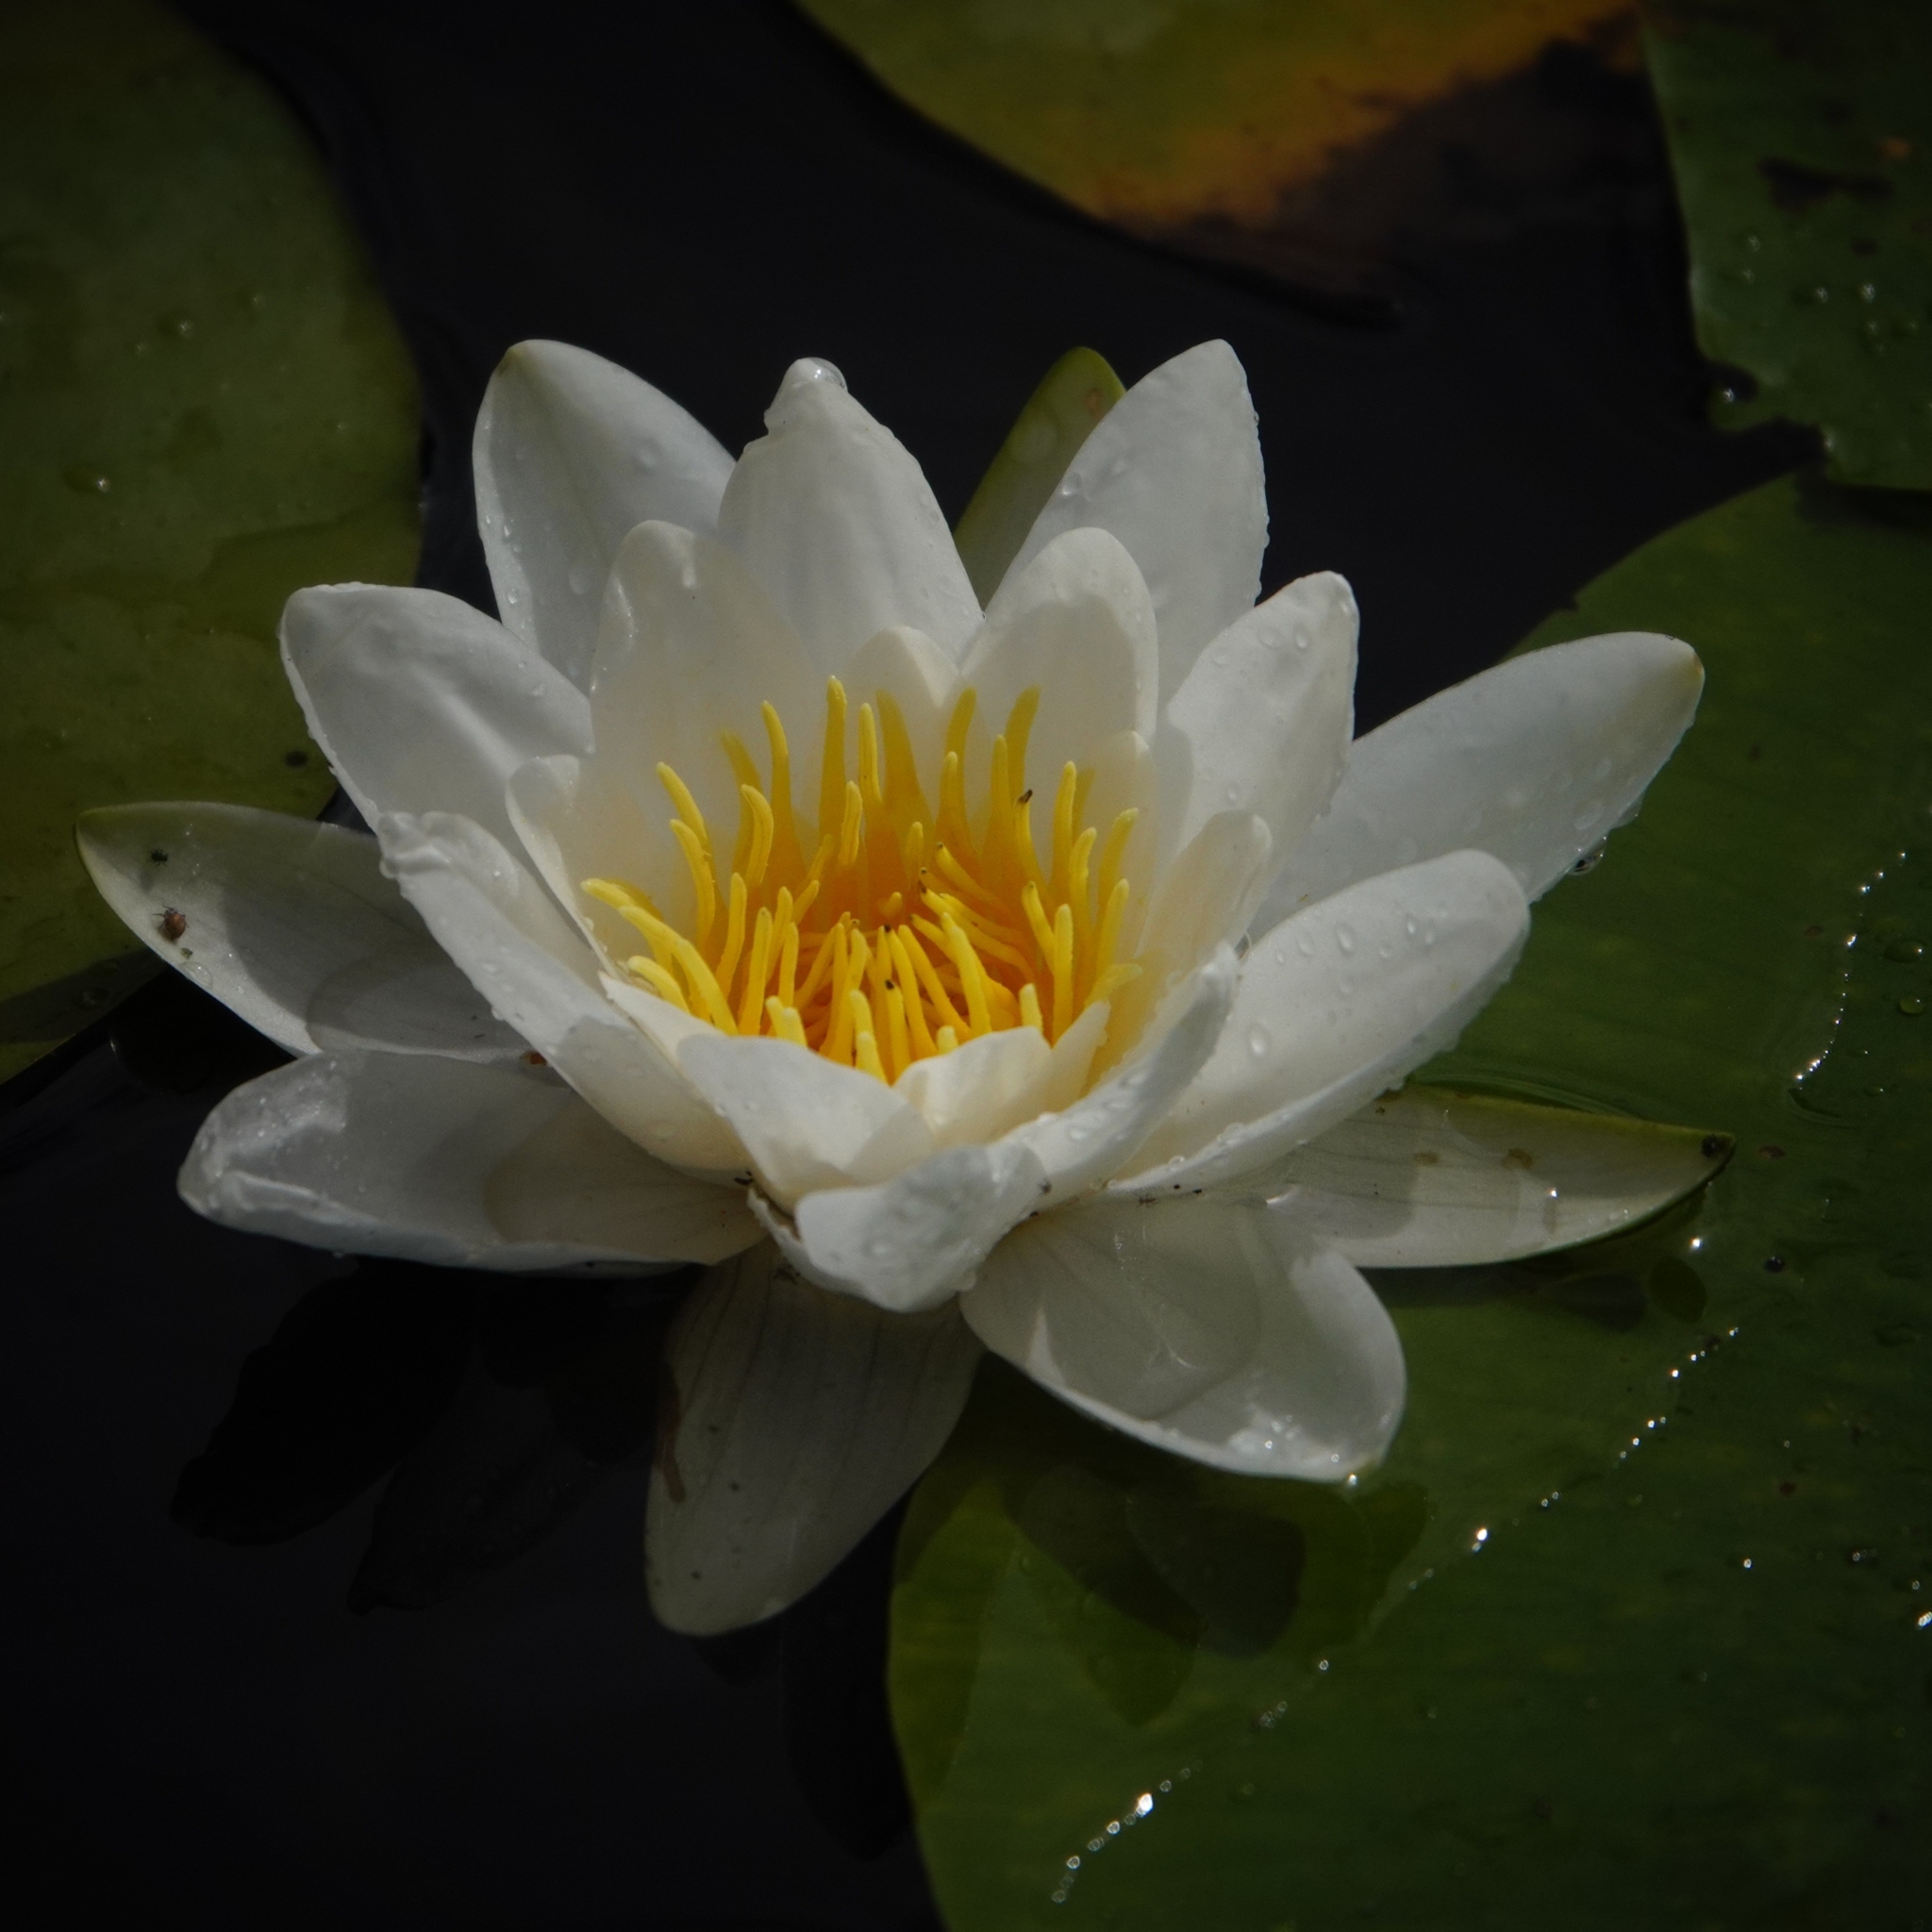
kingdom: Plantae
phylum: Tracheophyta
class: Magnoliopsida
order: Nymphaeales
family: Nymphaeaceae
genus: Nymphaea
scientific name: Nymphaea alba
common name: White water-lily
